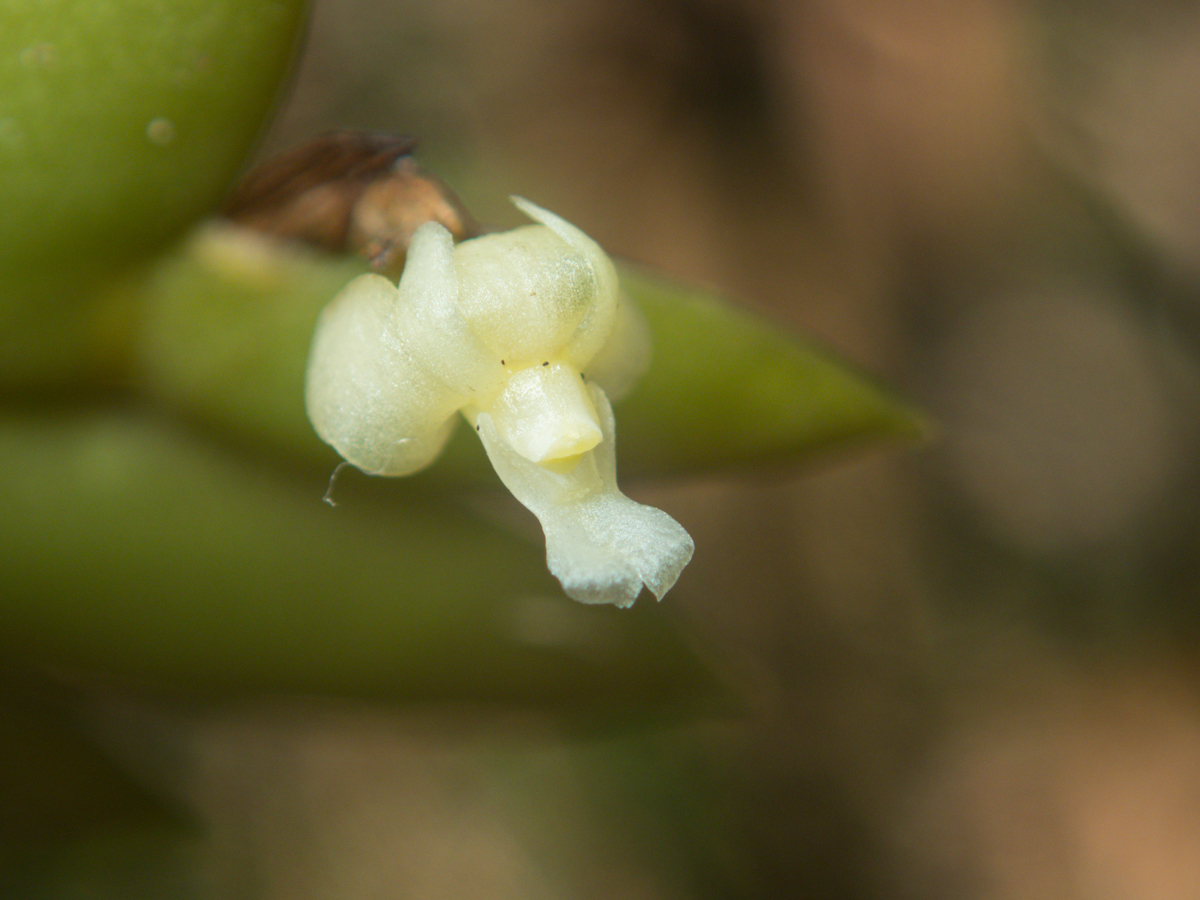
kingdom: Plantae
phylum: Tracheophyta
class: Liliopsida
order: Asparagales
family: Orchidaceae
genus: Dendrobium
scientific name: Dendrobium aloifolium
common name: Aloe-like dendrobium
